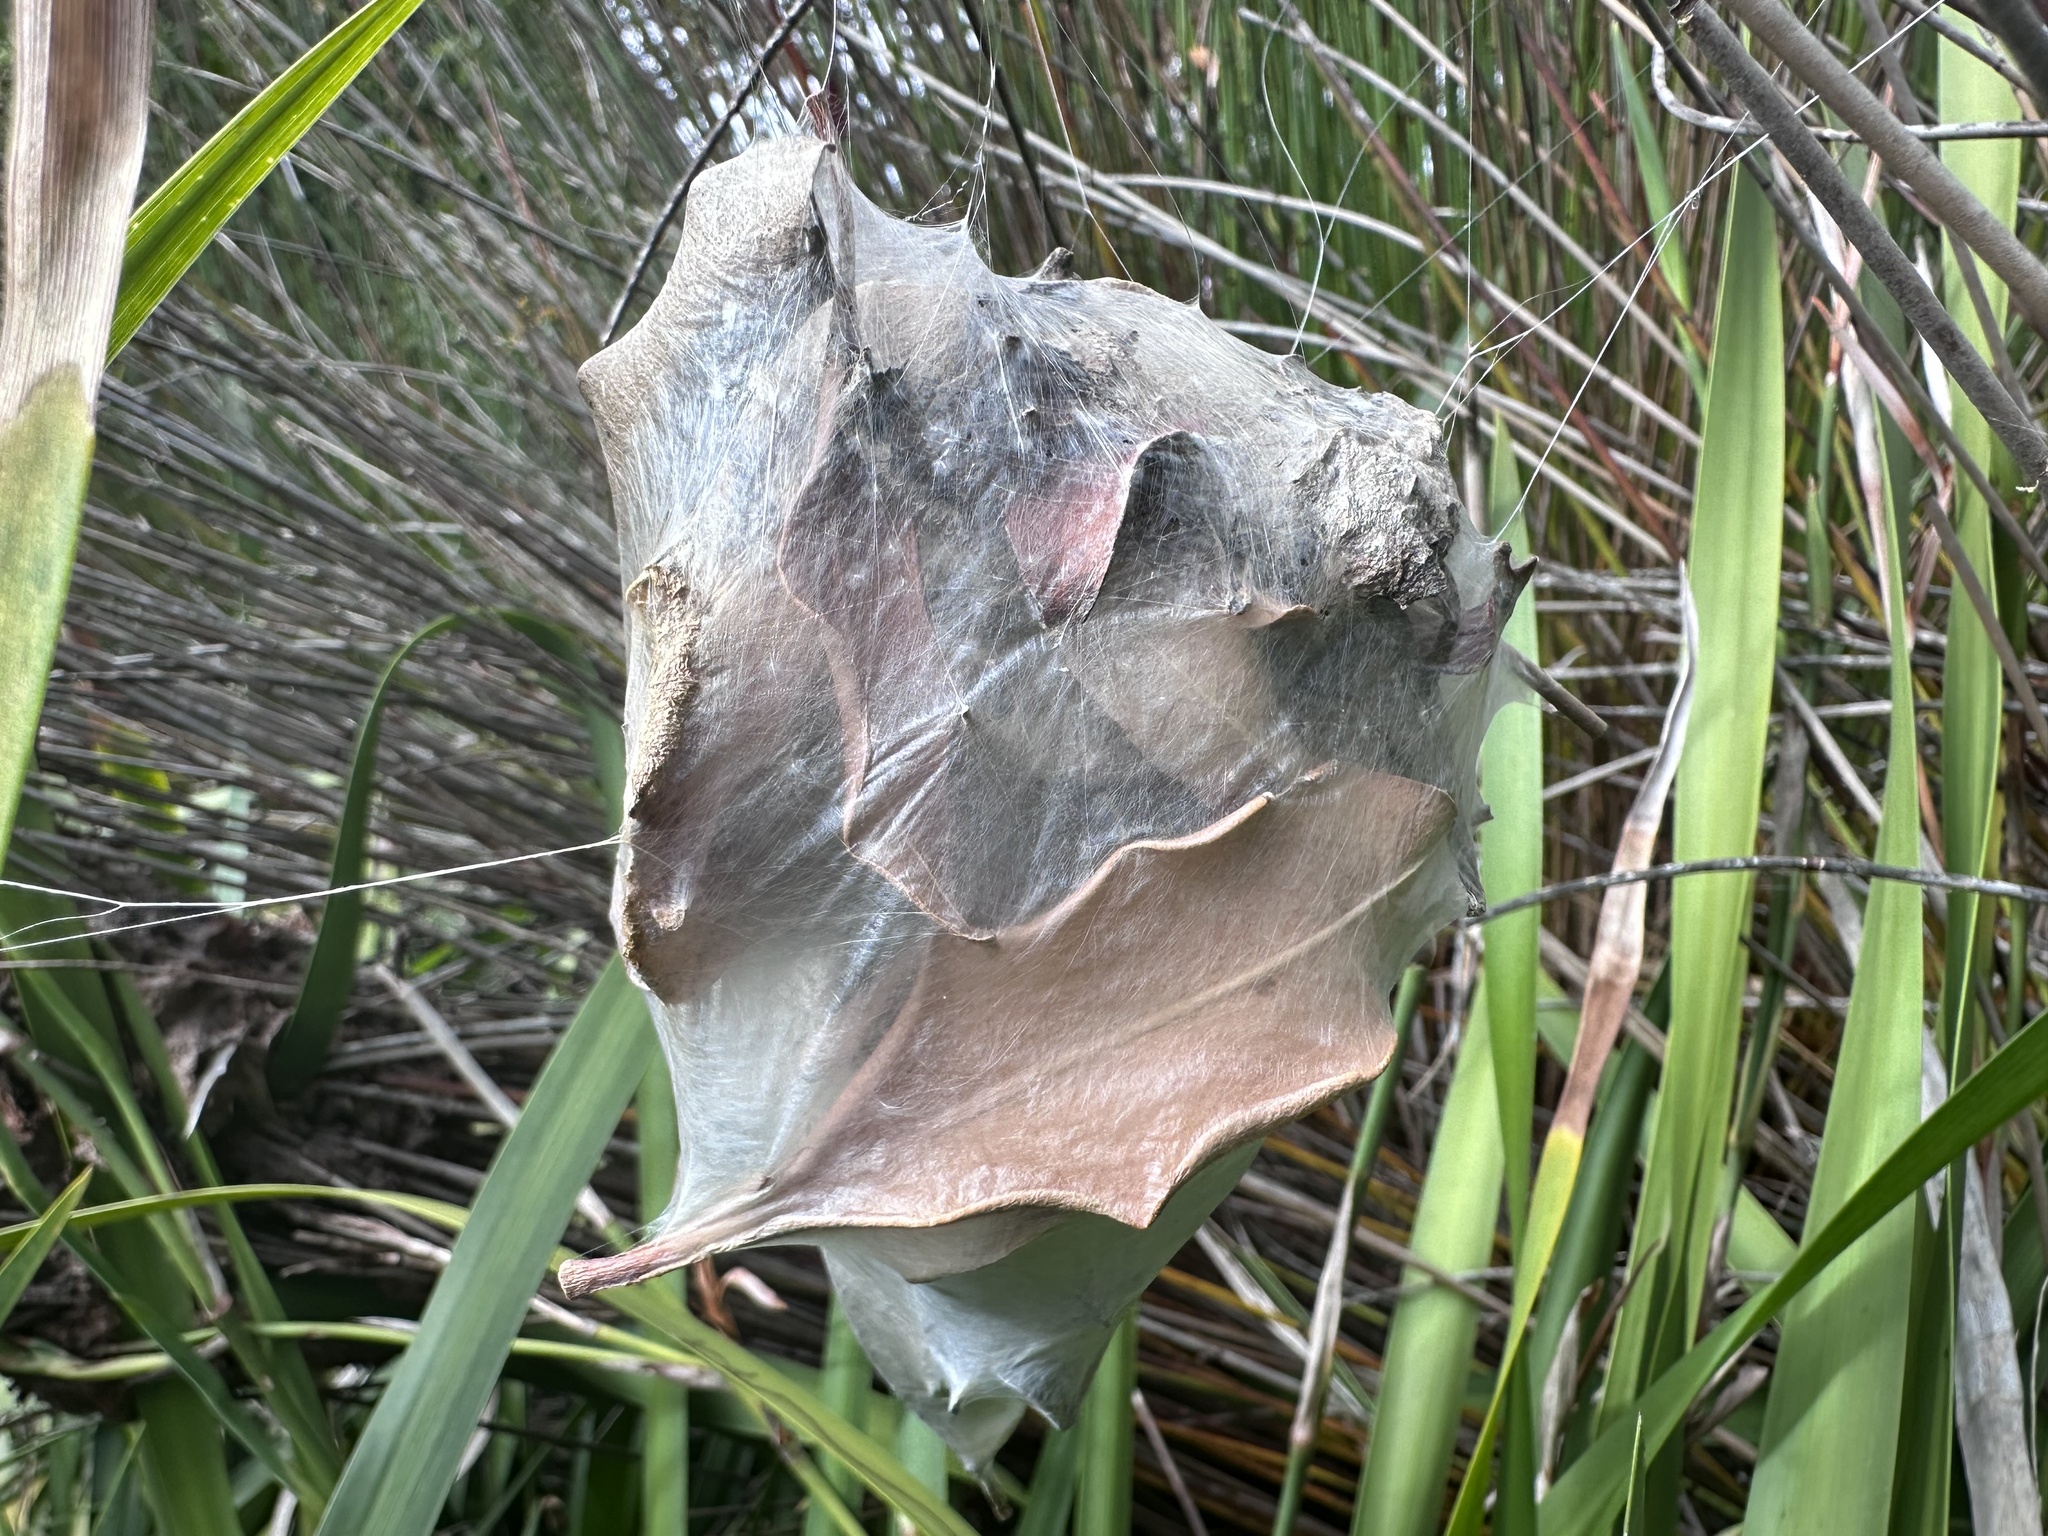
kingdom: Animalia
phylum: Arthropoda
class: Arachnida
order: Araneae
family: Sparassidae
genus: Palystes
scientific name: Palystes castaneus
